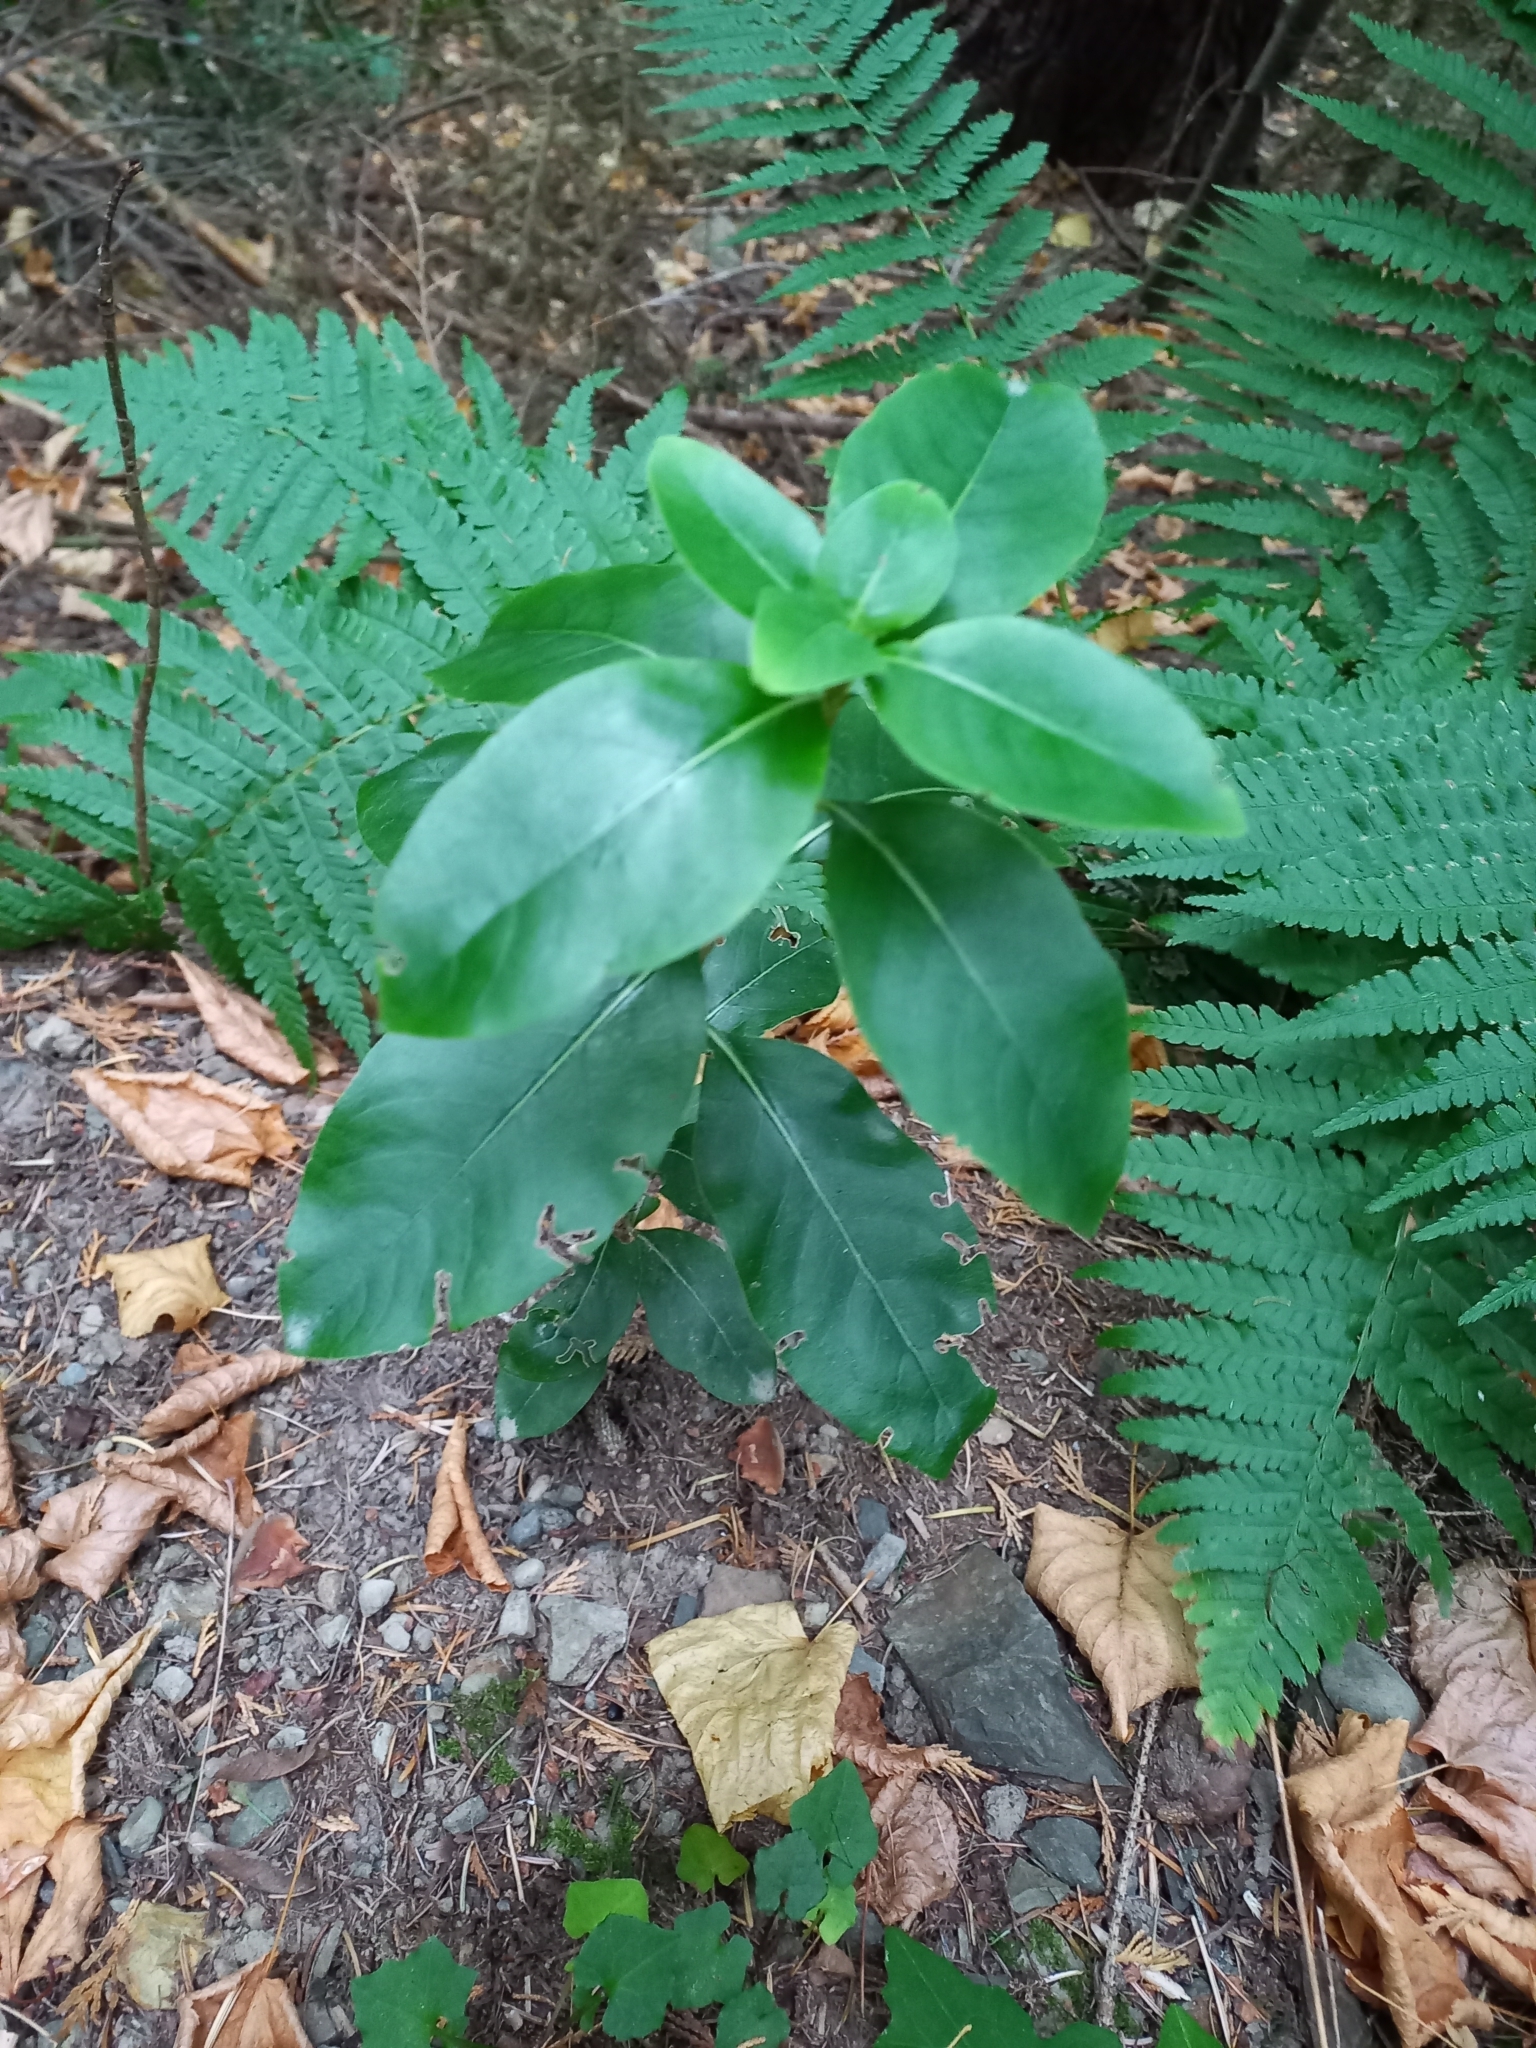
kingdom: Plantae
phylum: Tracheophyta
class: Magnoliopsida
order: Gentianales
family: Rubiaceae
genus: Coprosma
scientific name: Coprosma robusta
